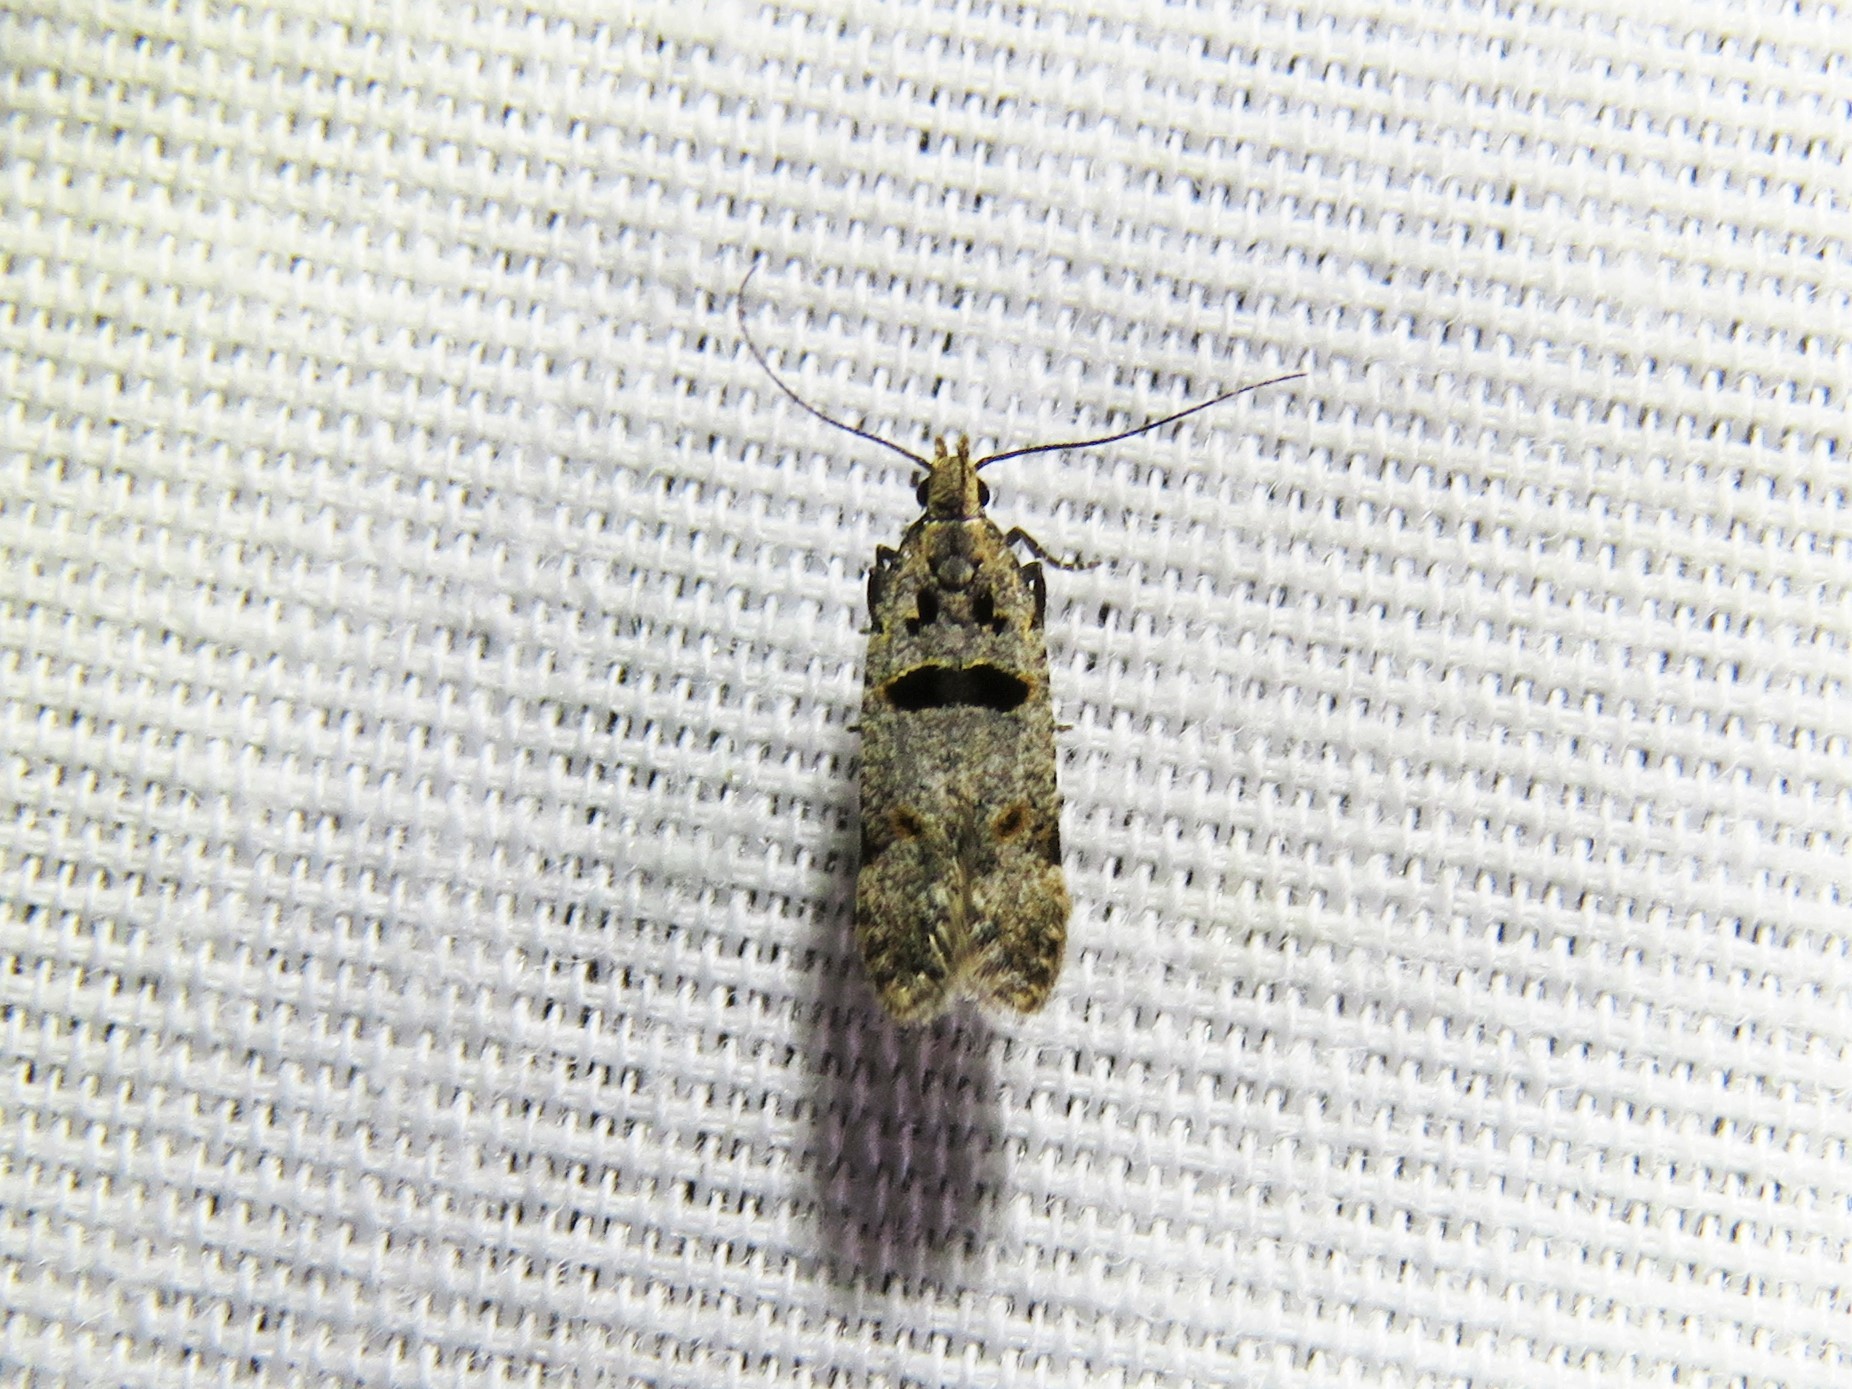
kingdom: Animalia
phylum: Arthropoda
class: Insecta
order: Lepidoptera
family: Gelechiidae
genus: Deltophora
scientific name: Deltophora glandiferella
